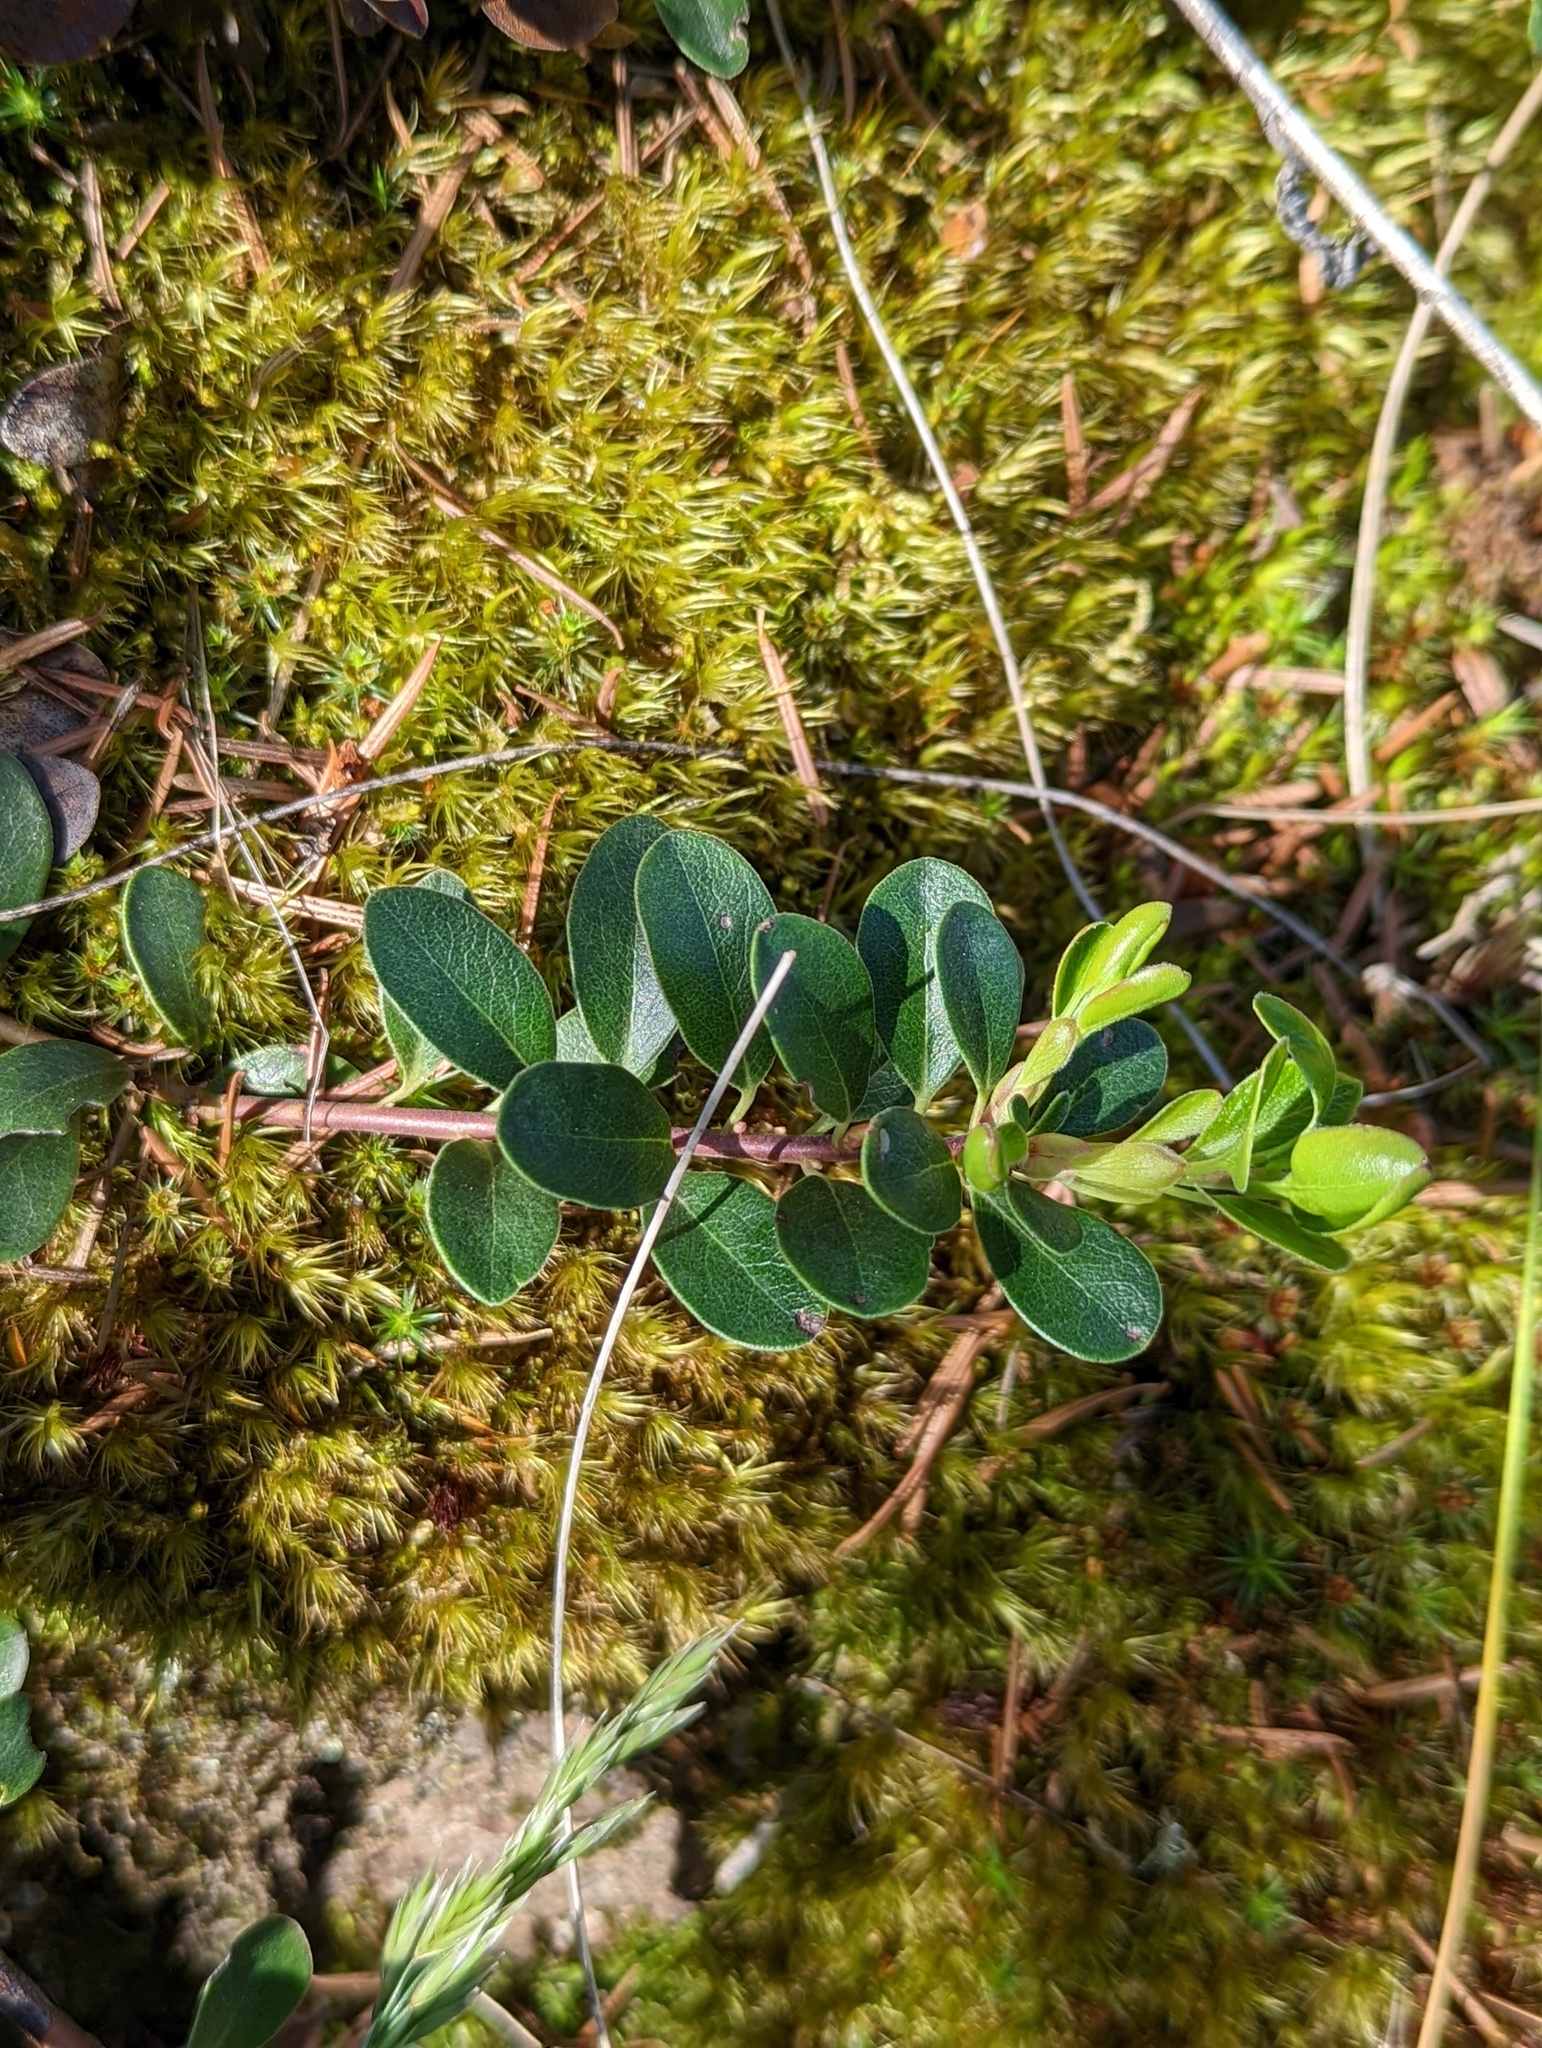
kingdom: Plantae
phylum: Tracheophyta
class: Magnoliopsida
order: Ericales
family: Ericaceae
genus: Arctostaphylos
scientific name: Arctostaphylos uva-ursi
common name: Bearberry
